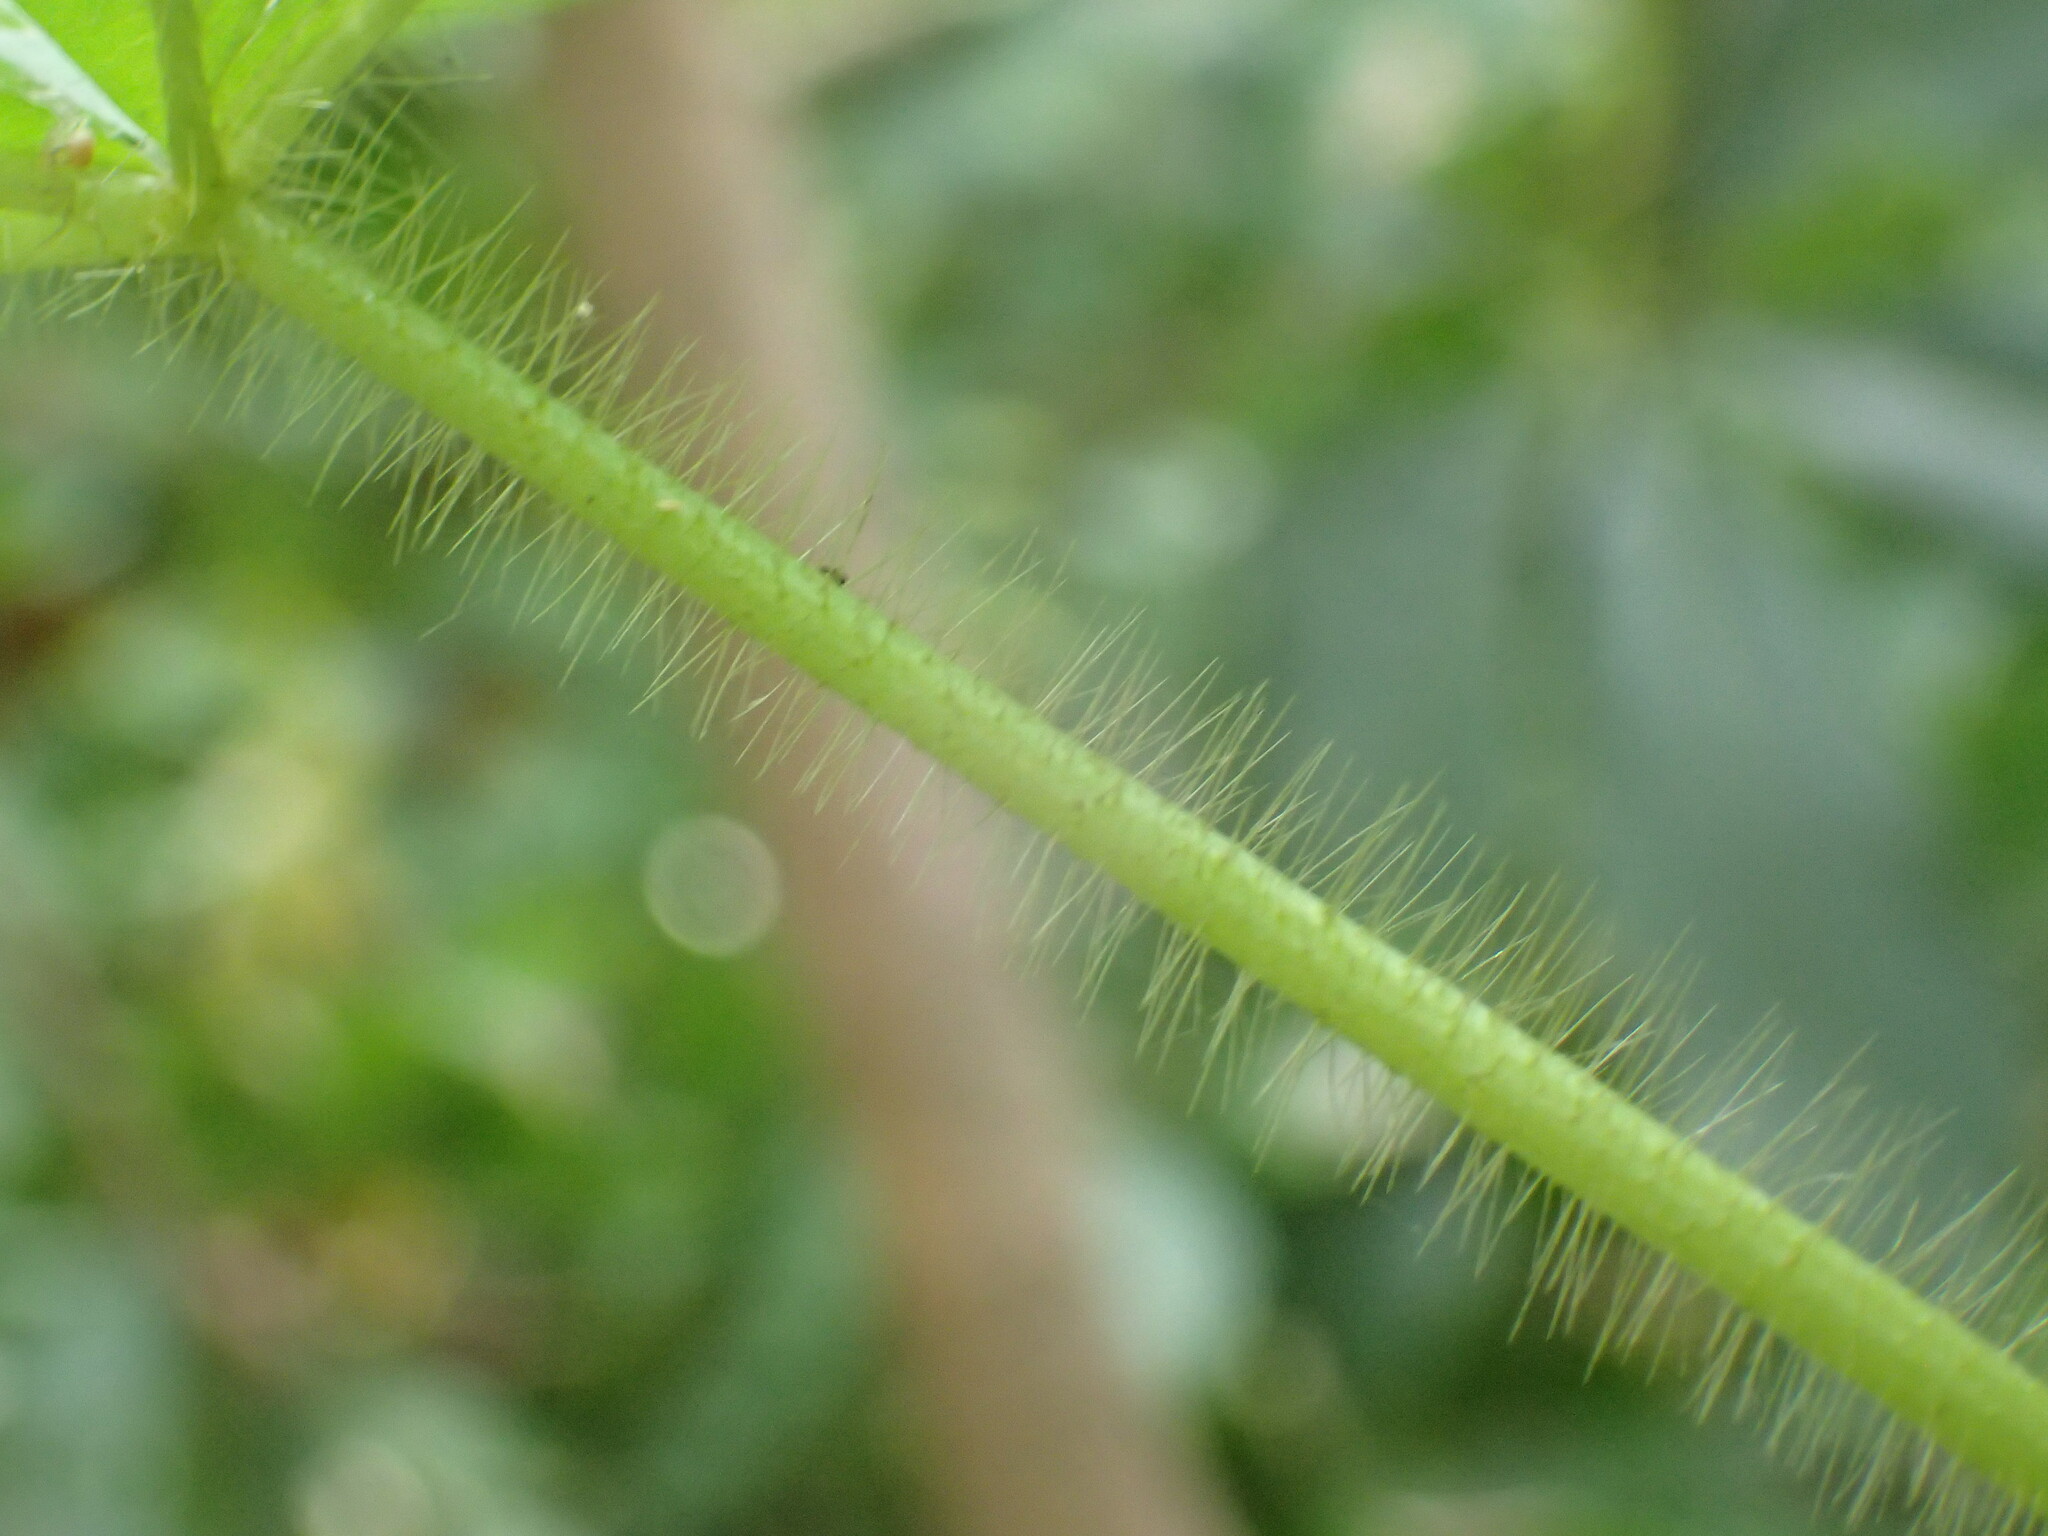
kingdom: Plantae
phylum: Tracheophyta
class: Magnoliopsida
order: Solanales
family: Convolvulaceae
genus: Distimake
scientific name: Distimake aegyptius
